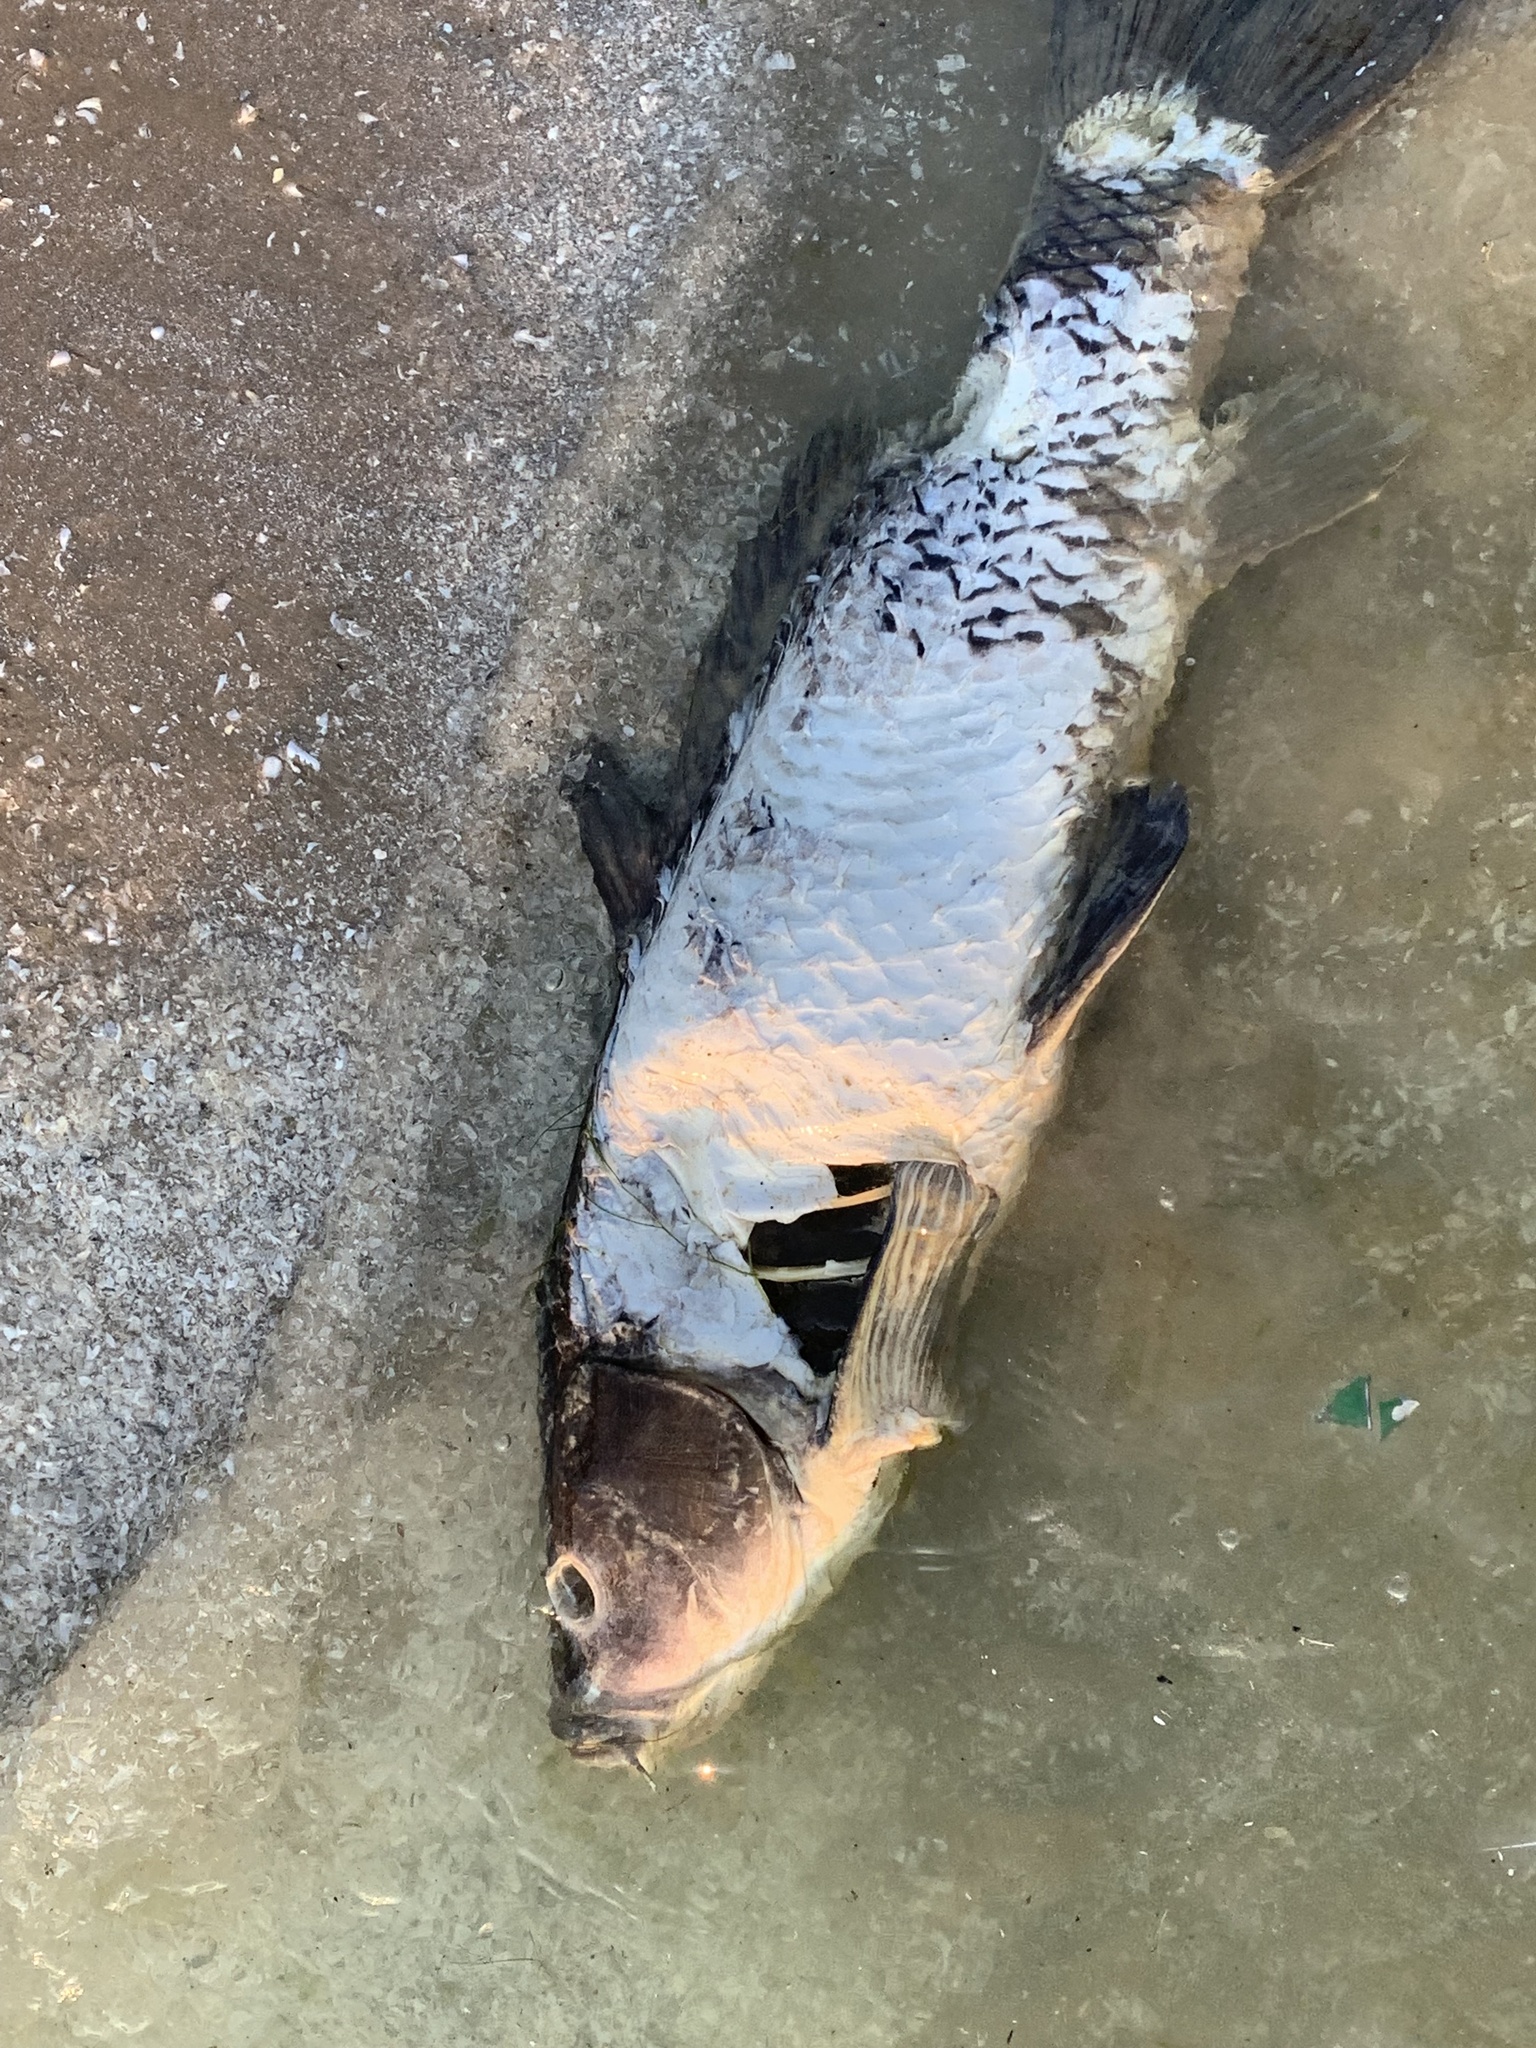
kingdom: Animalia
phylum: Chordata
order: Cypriniformes
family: Cyprinidae
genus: Cyprinus
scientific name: Cyprinus carpio
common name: Common carp
